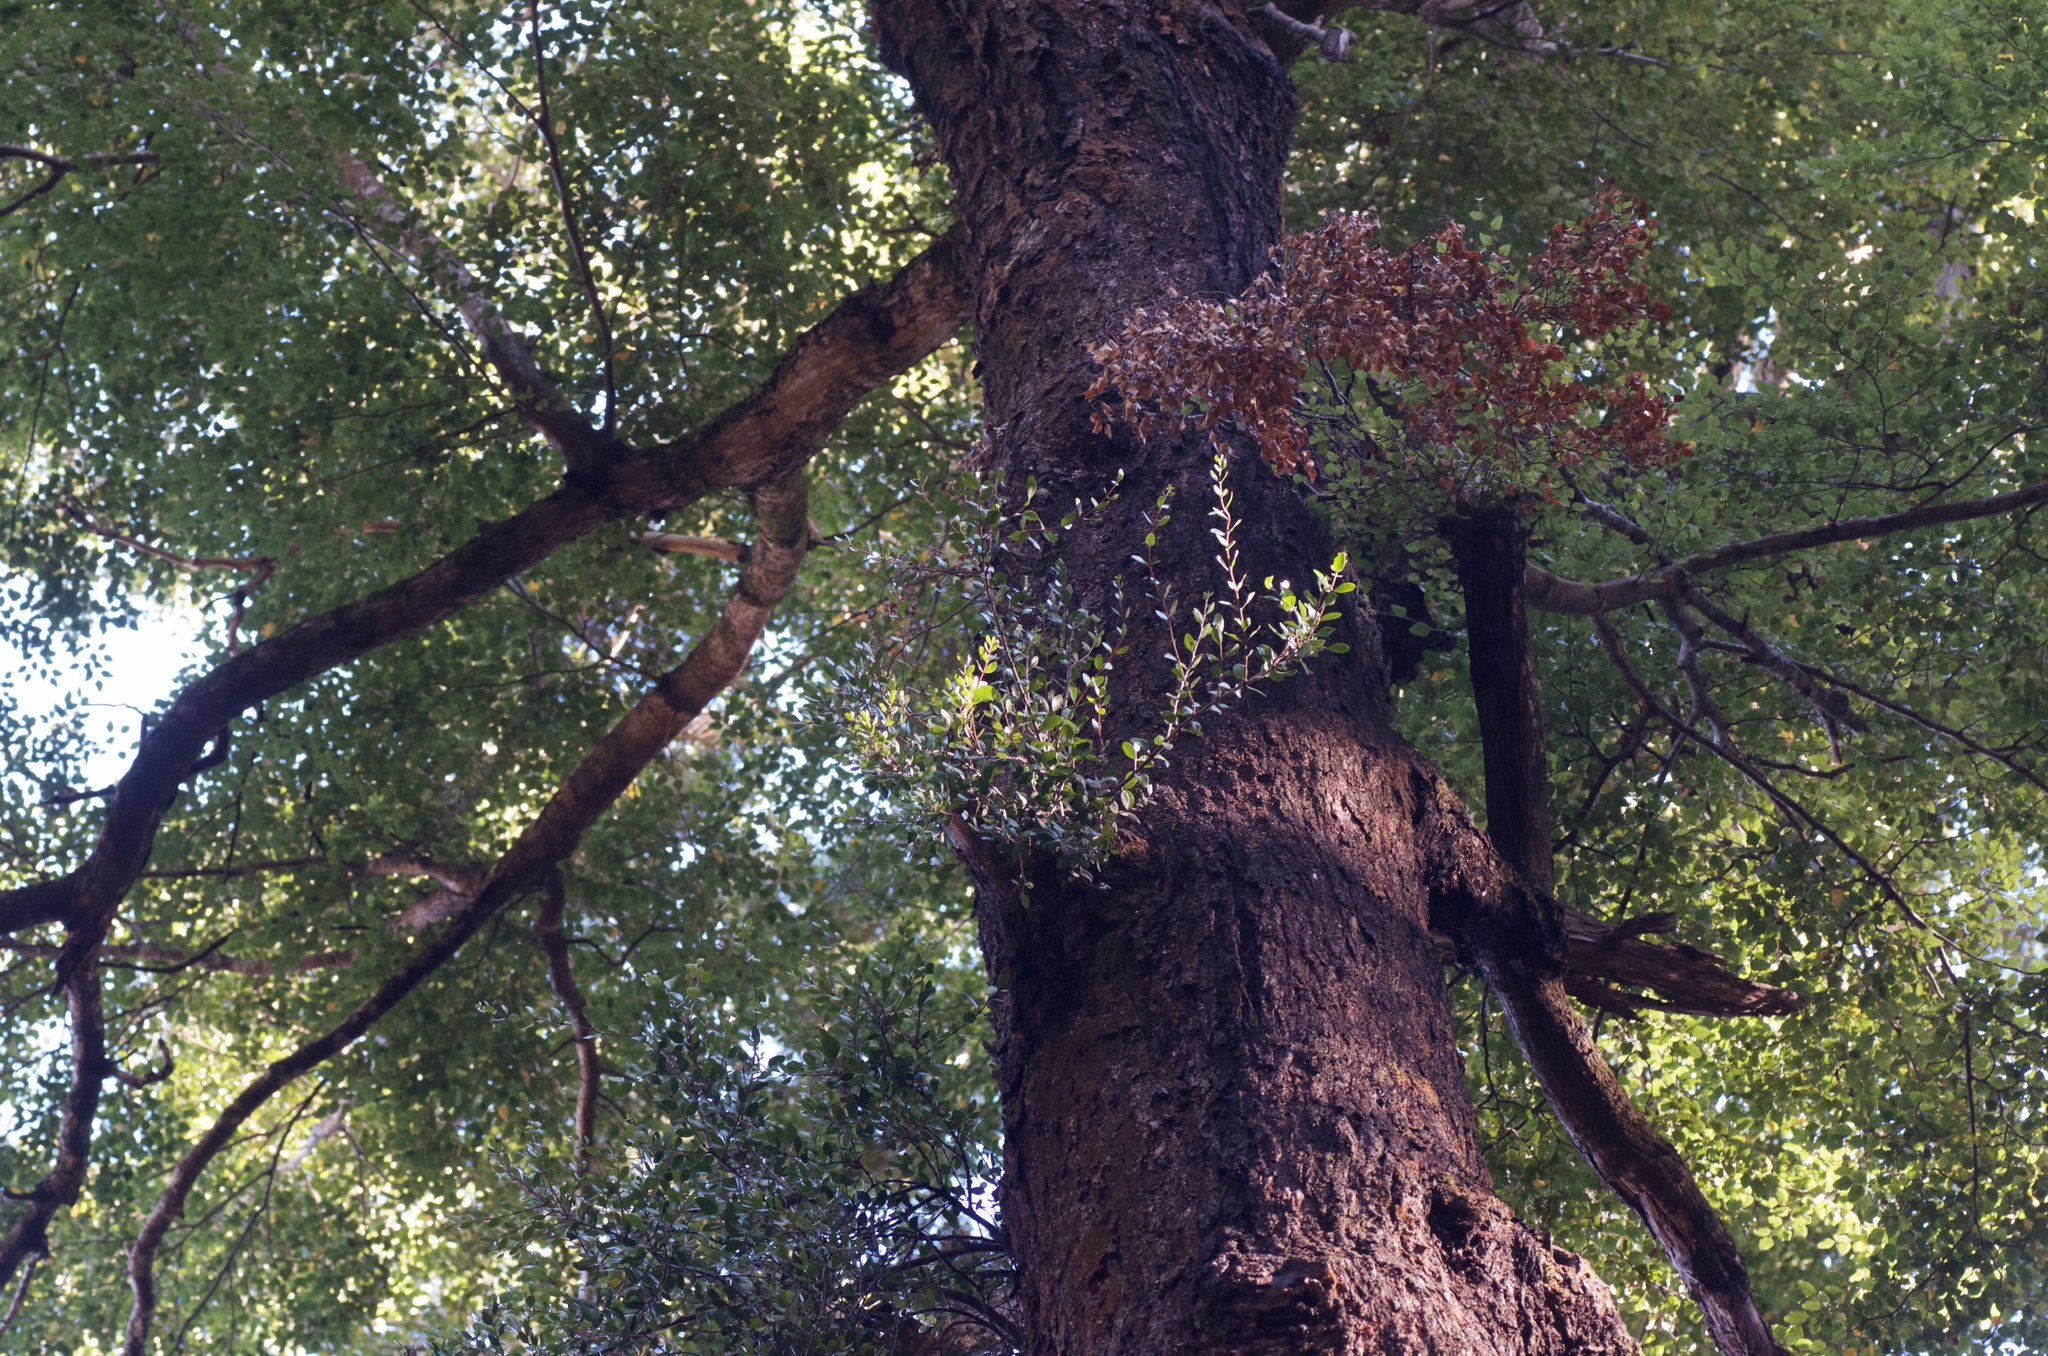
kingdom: Plantae
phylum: Tracheophyta
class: Magnoliopsida
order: Santalales
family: Loranthaceae
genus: Peraxilla
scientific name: Peraxilla tetrapetala
